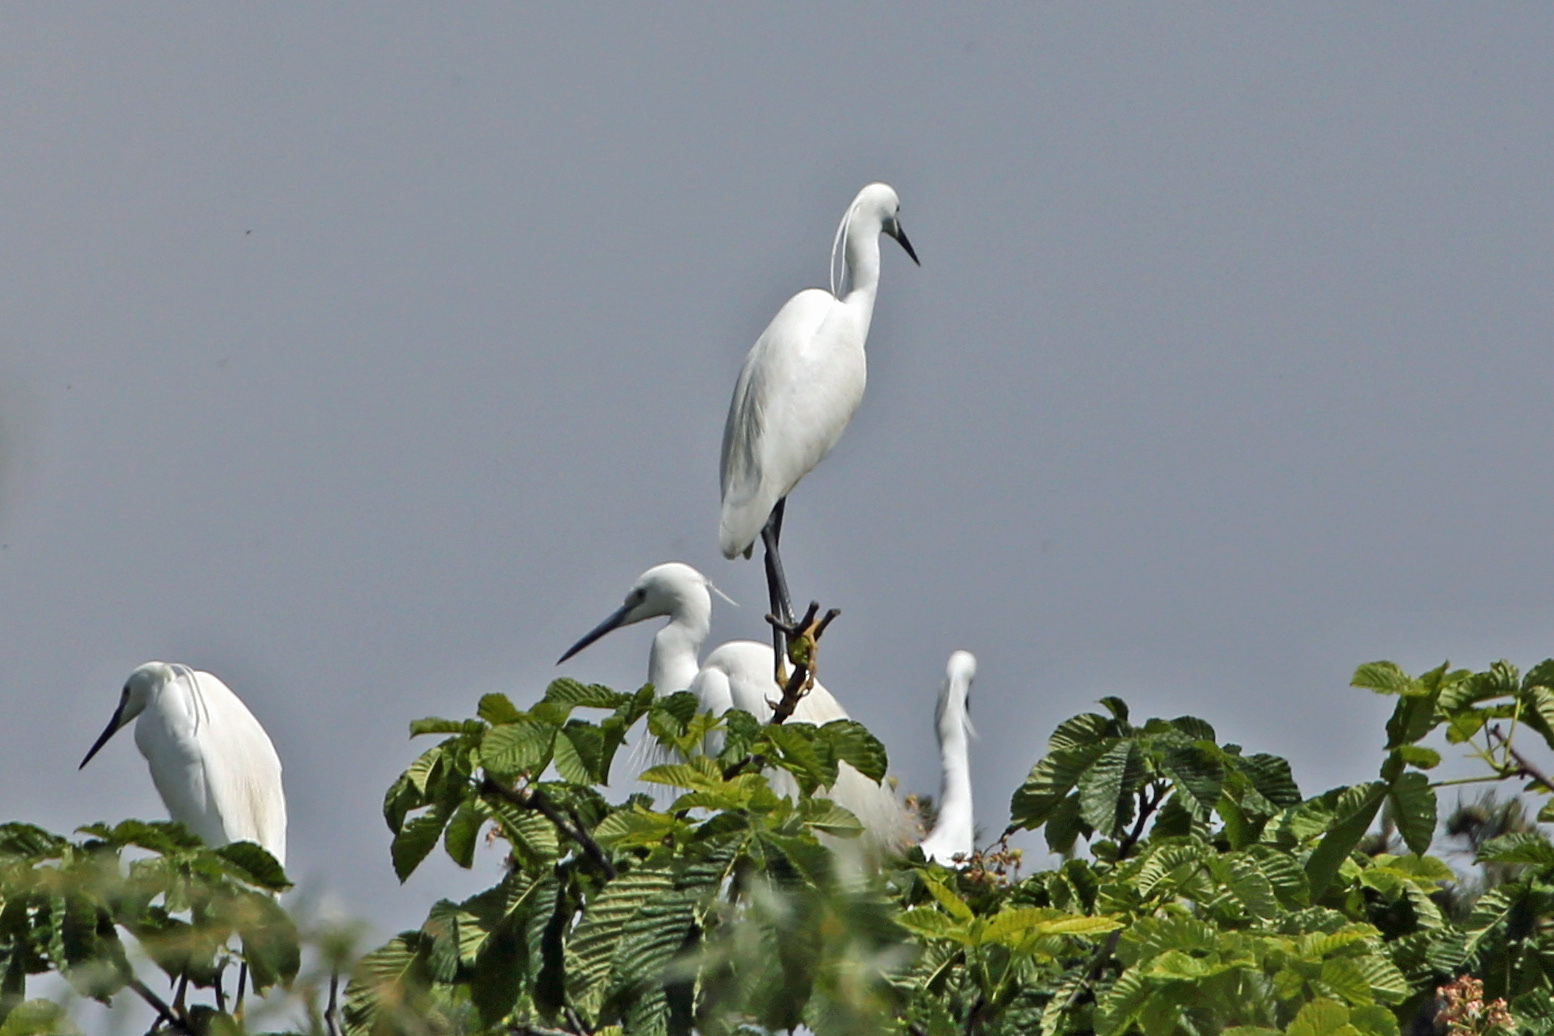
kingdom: Animalia
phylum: Chordata
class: Aves
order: Pelecaniformes
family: Ardeidae
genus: Egretta
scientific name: Egretta garzetta
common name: Little egret
